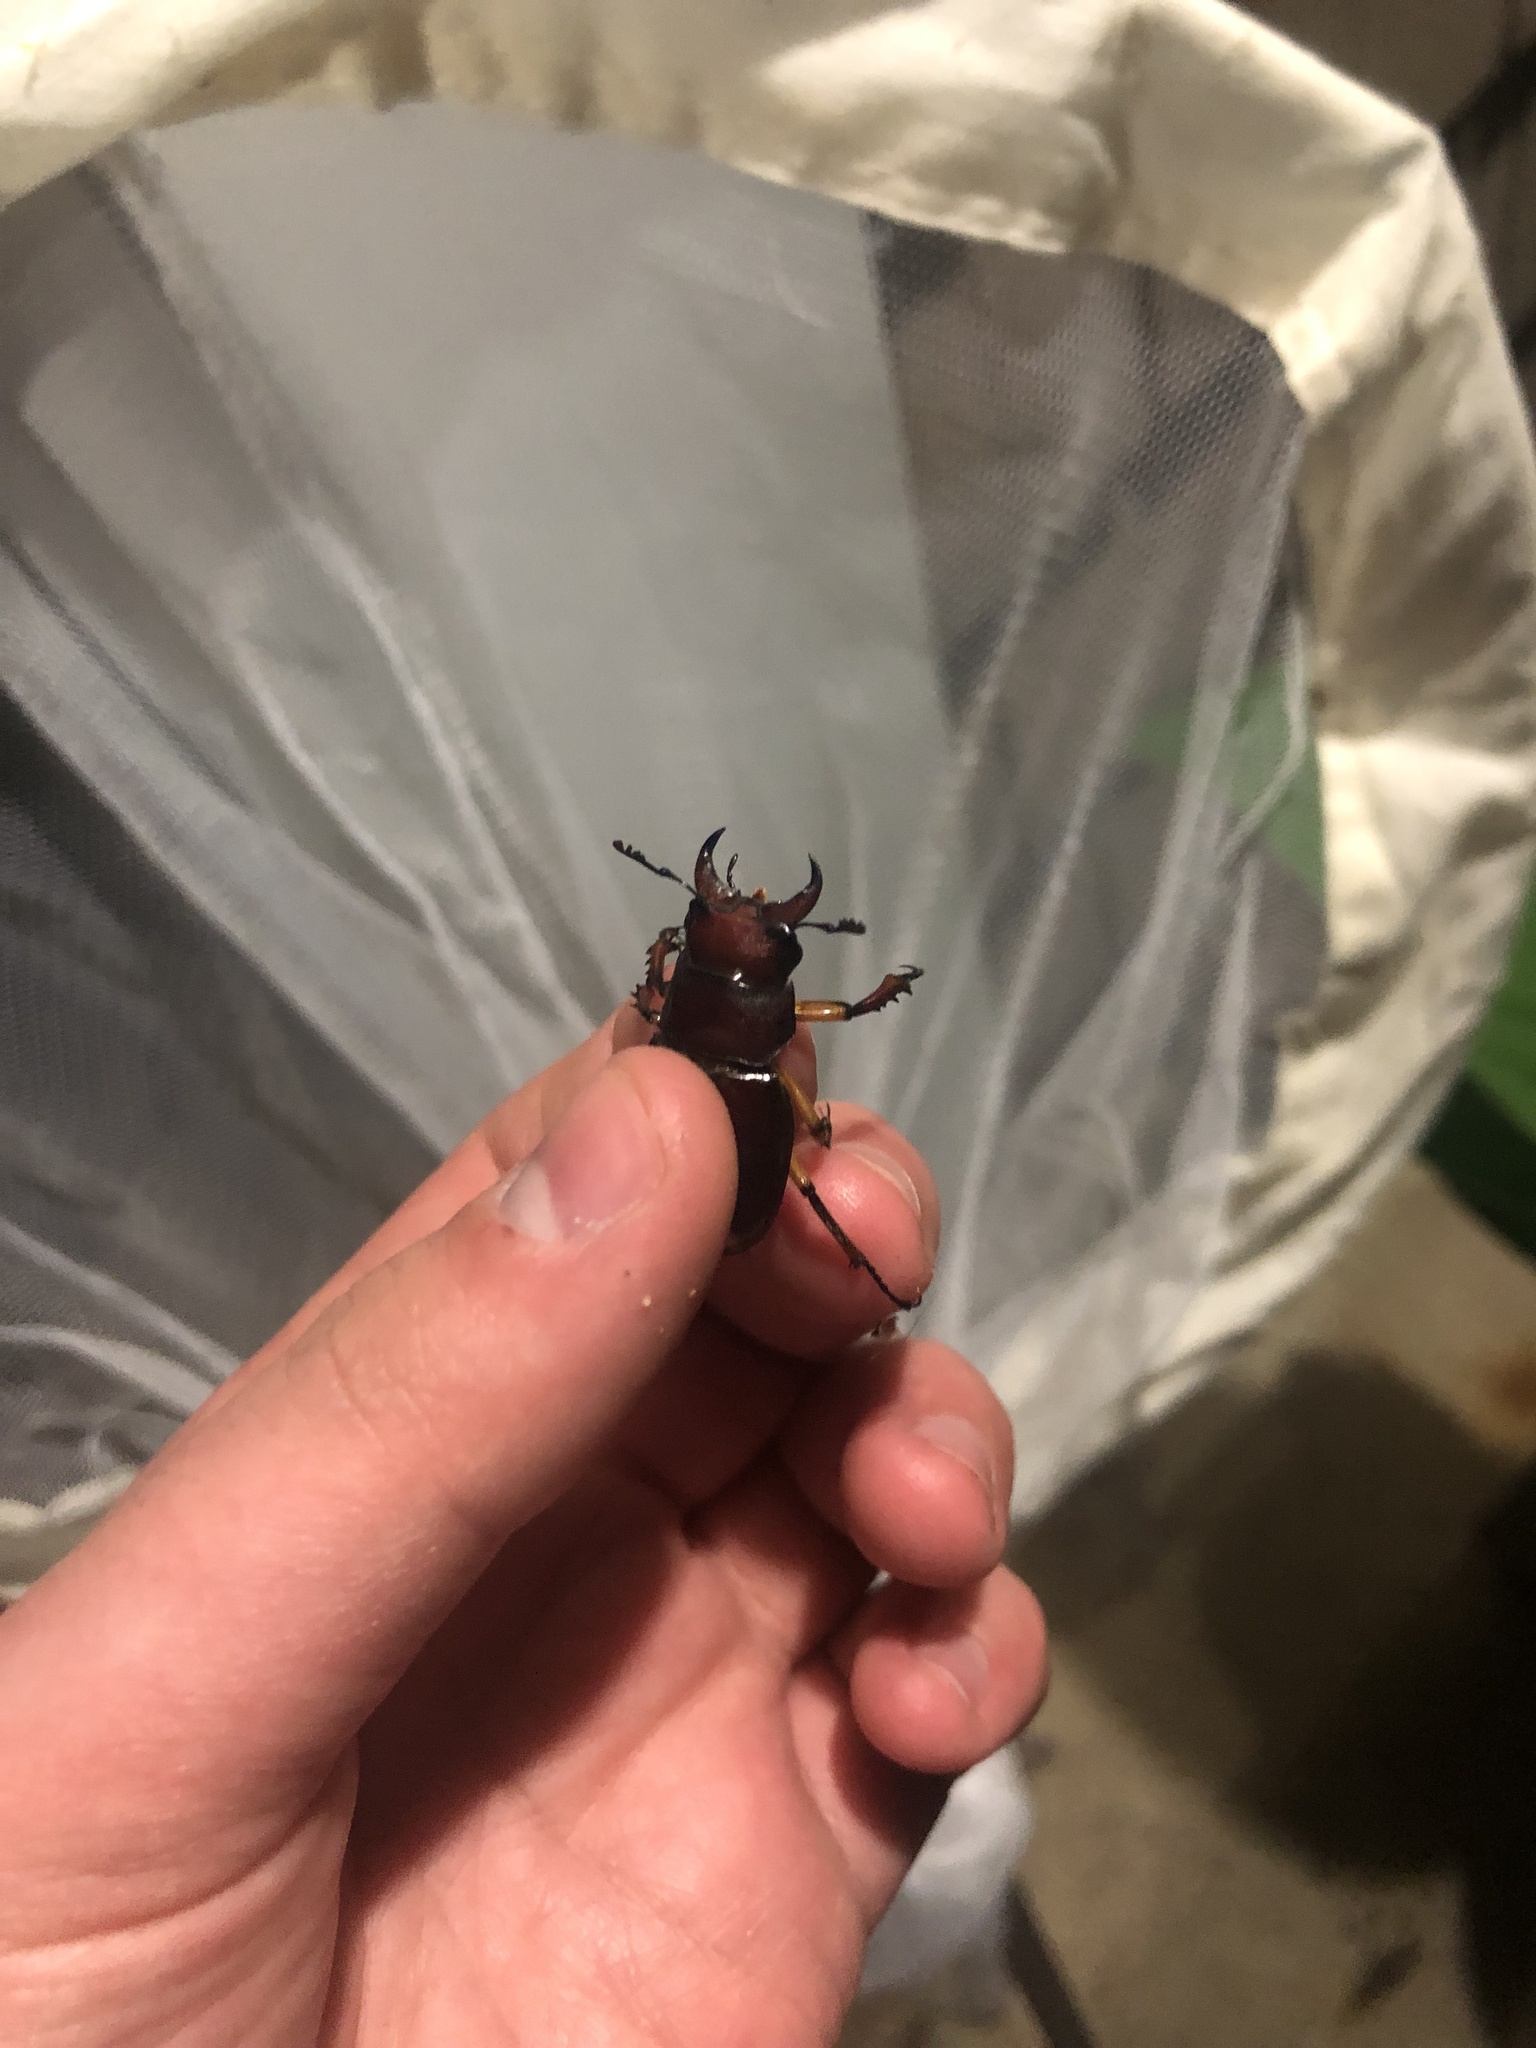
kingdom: Animalia
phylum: Arthropoda
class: Insecta
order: Coleoptera
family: Lucanidae
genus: Lucanus
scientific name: Lucanus capreolus
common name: Stag beetle
